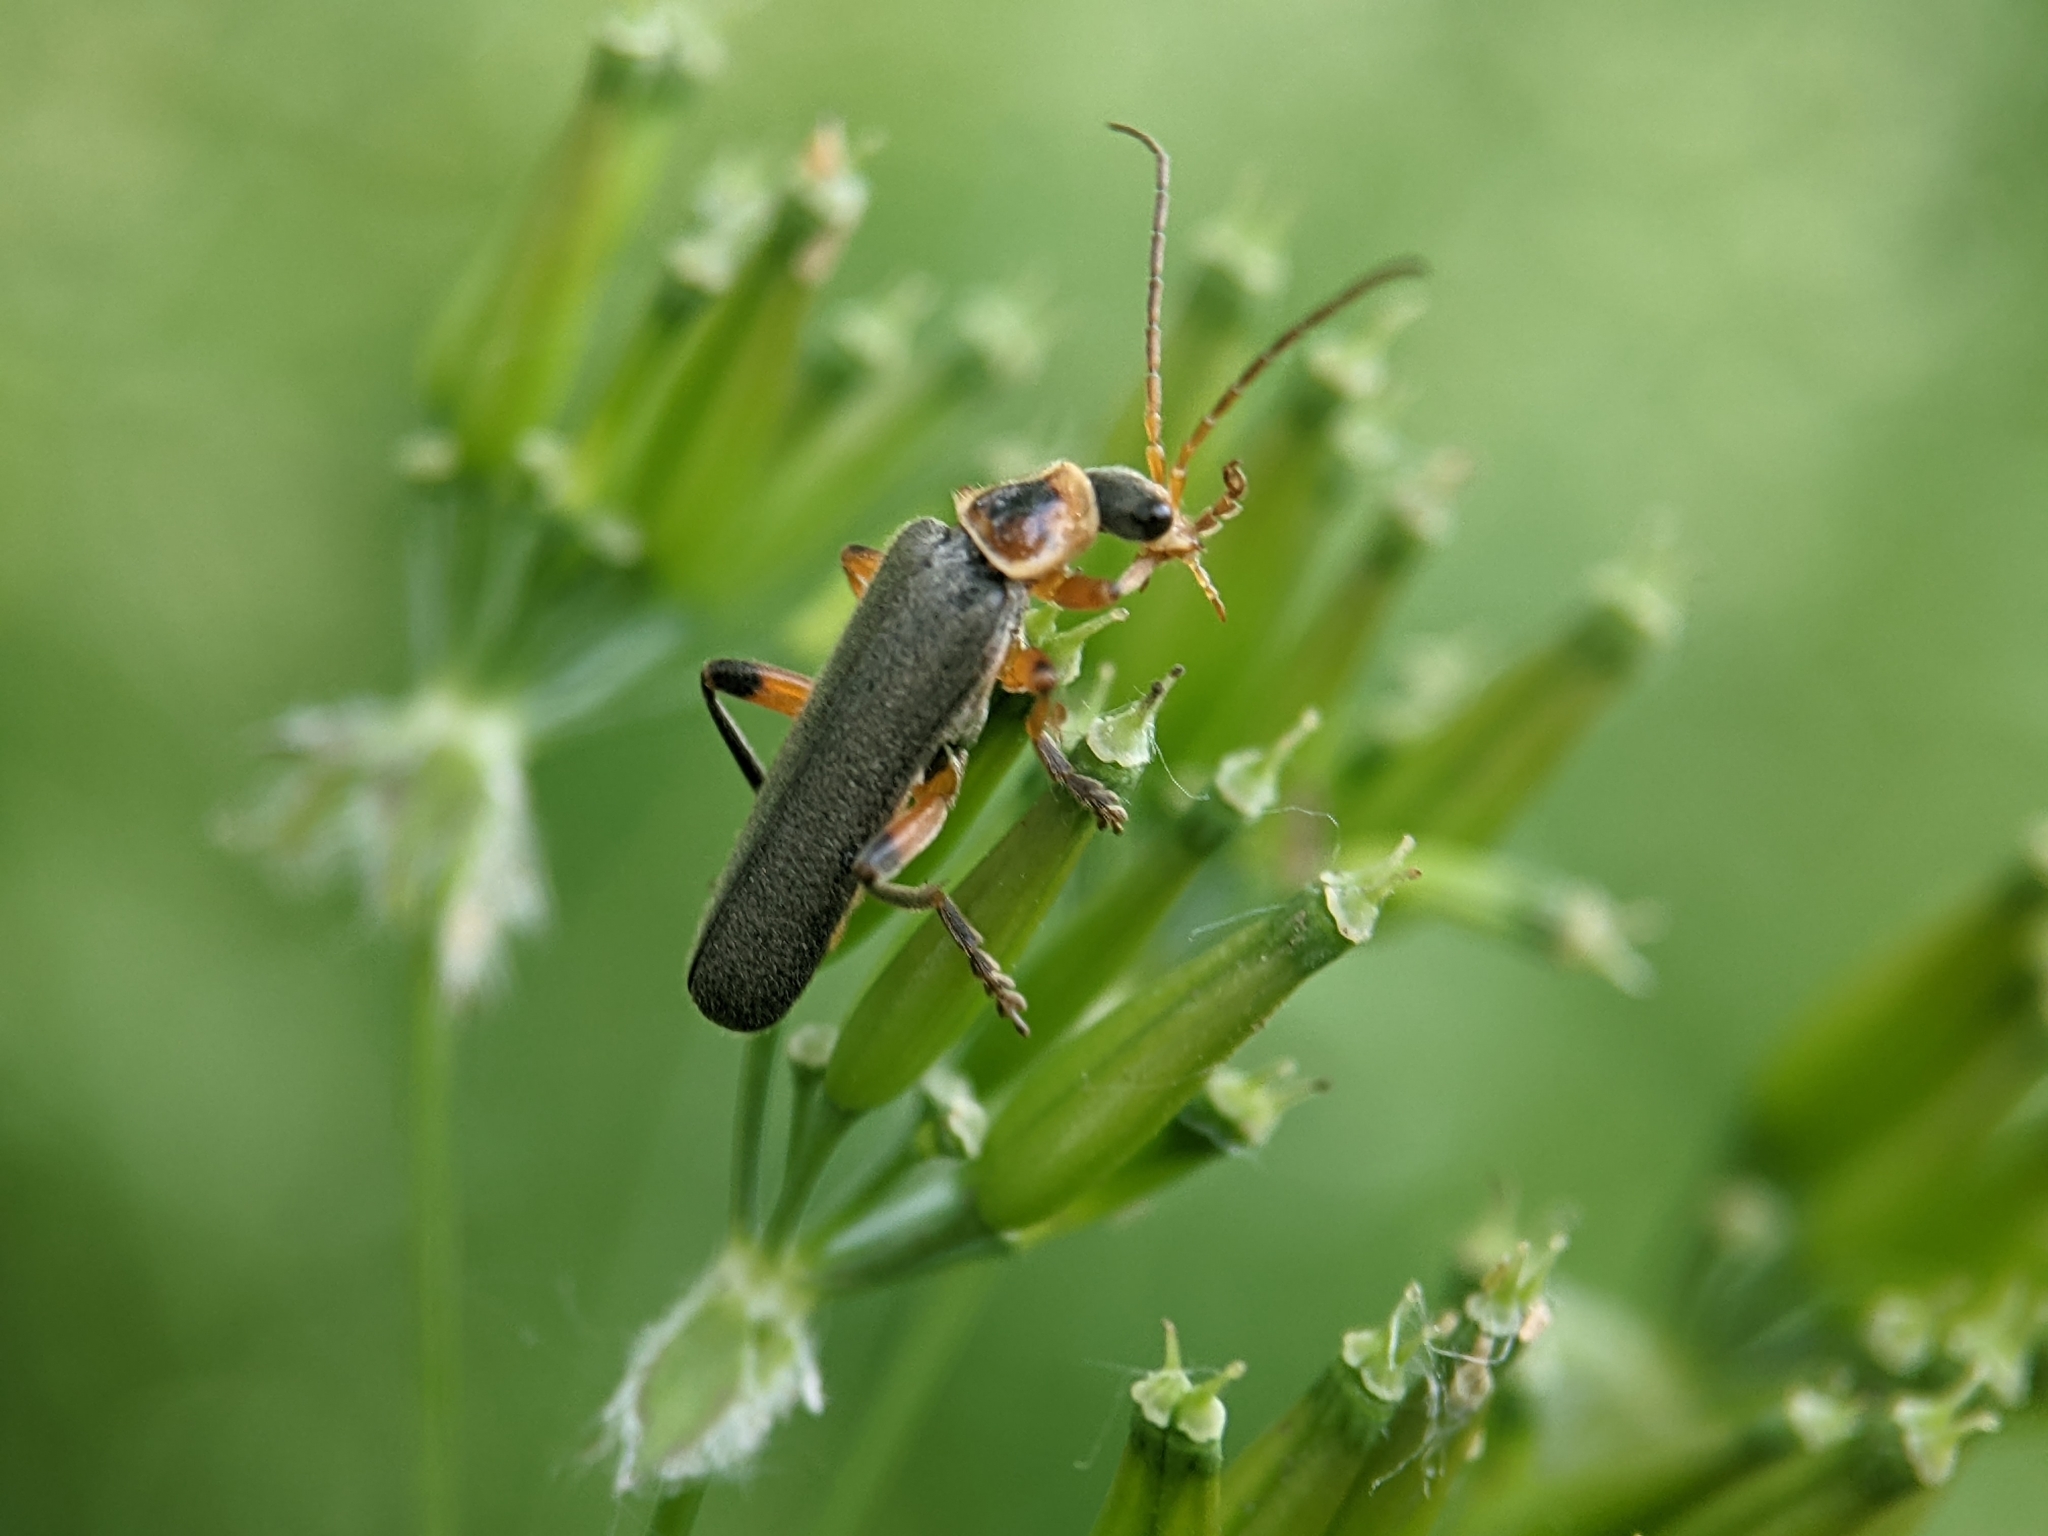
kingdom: Animalia
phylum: Arthropoda
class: Insecta
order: Coleoptera
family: Cantharidae
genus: Cantharis
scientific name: Cantharis nigricans
